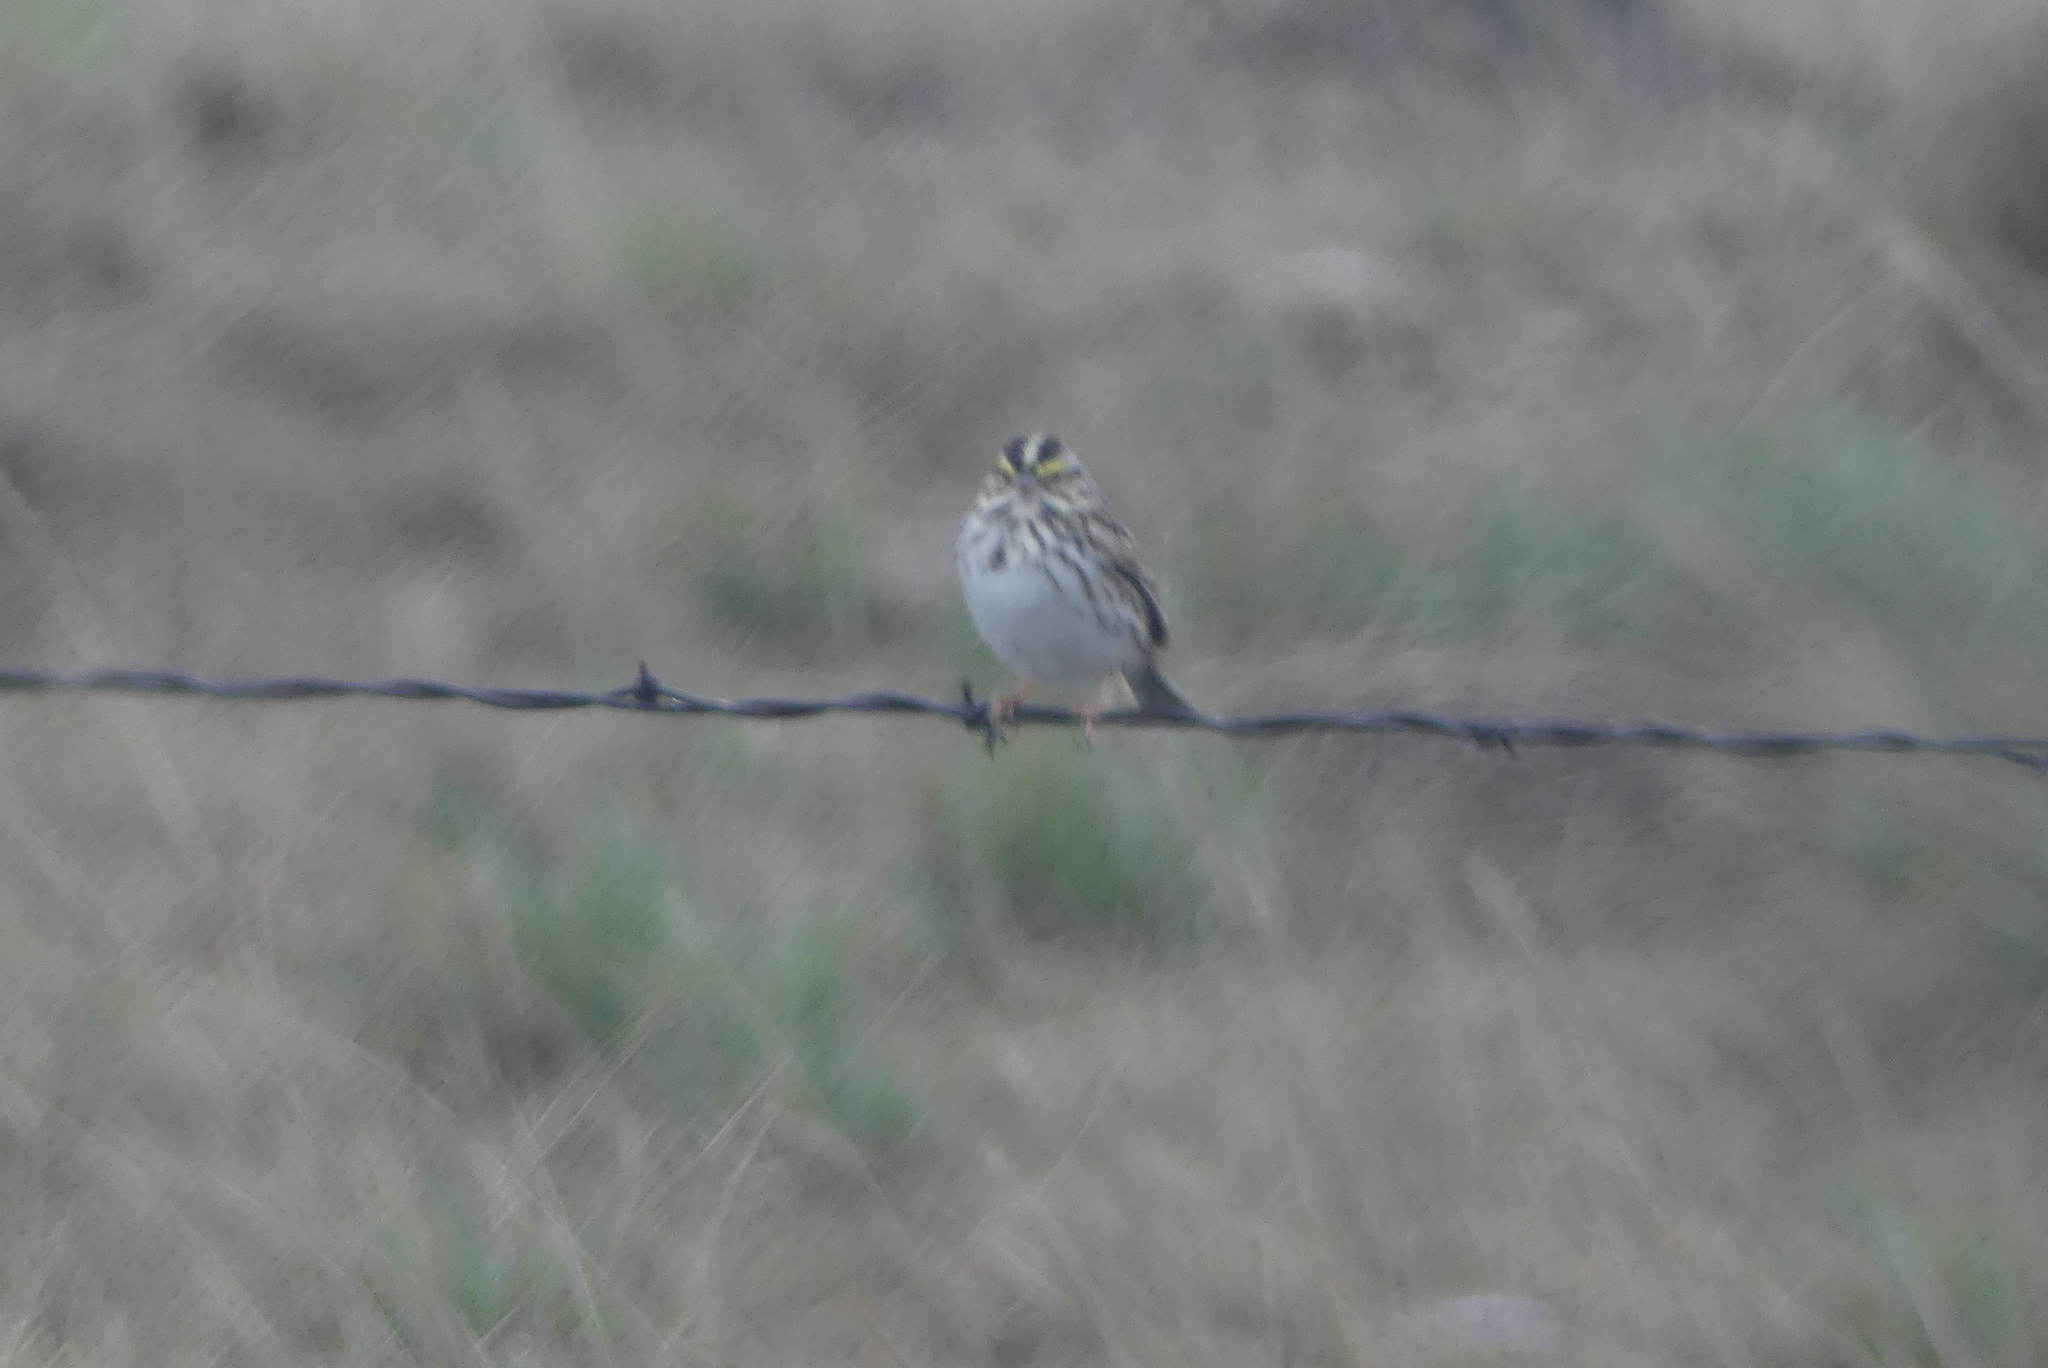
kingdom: Animalia
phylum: Chordata
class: Aves
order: Passeriformes
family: Passerellidae
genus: Passerculus
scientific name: Passerculus sandwichensis
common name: Savannah sparrow
